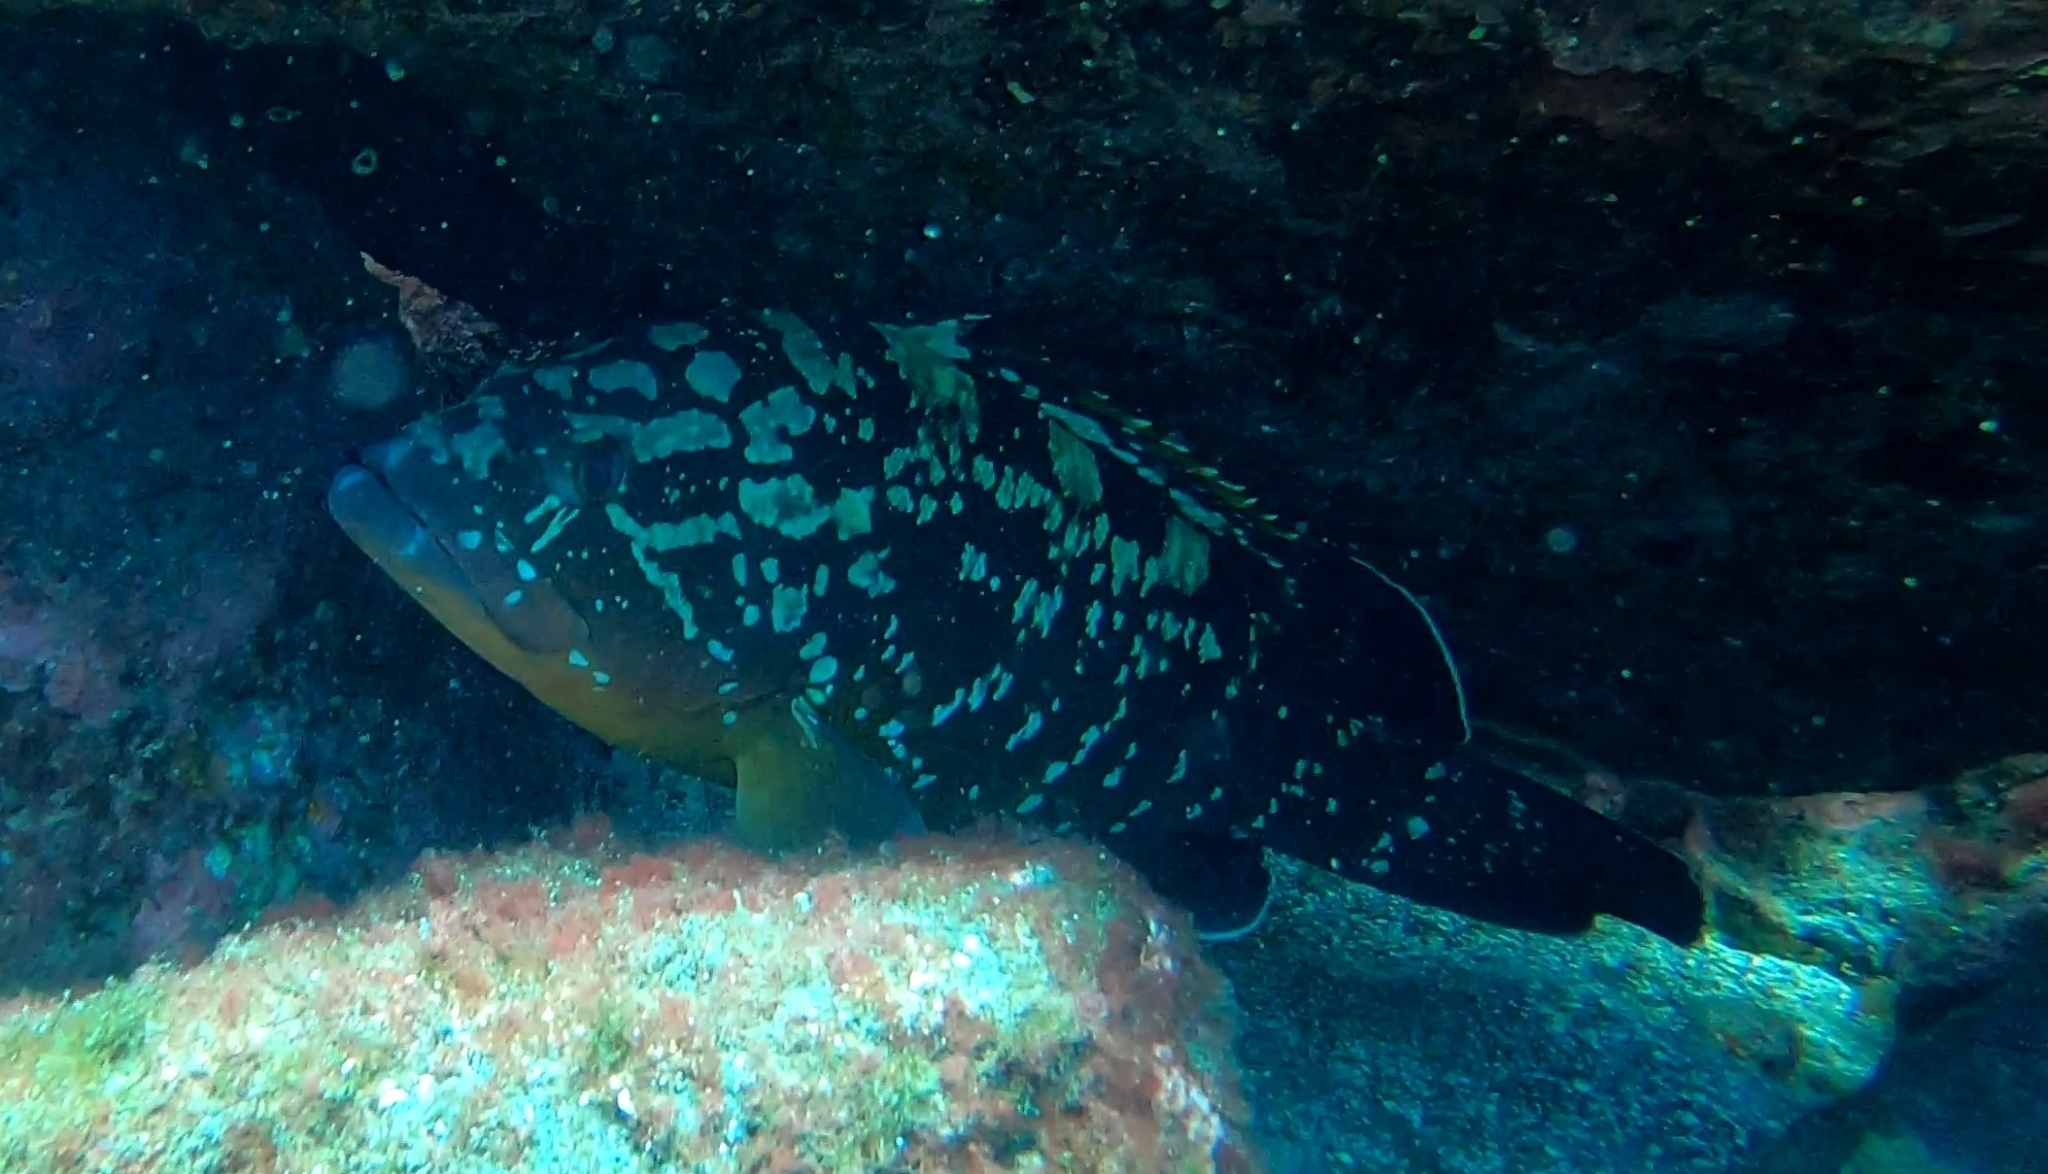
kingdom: Animalia
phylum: Chordata
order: Perciformes
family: Serranidae
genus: Epinephelus
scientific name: Epinephelus marginatus
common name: Dusky grouper
